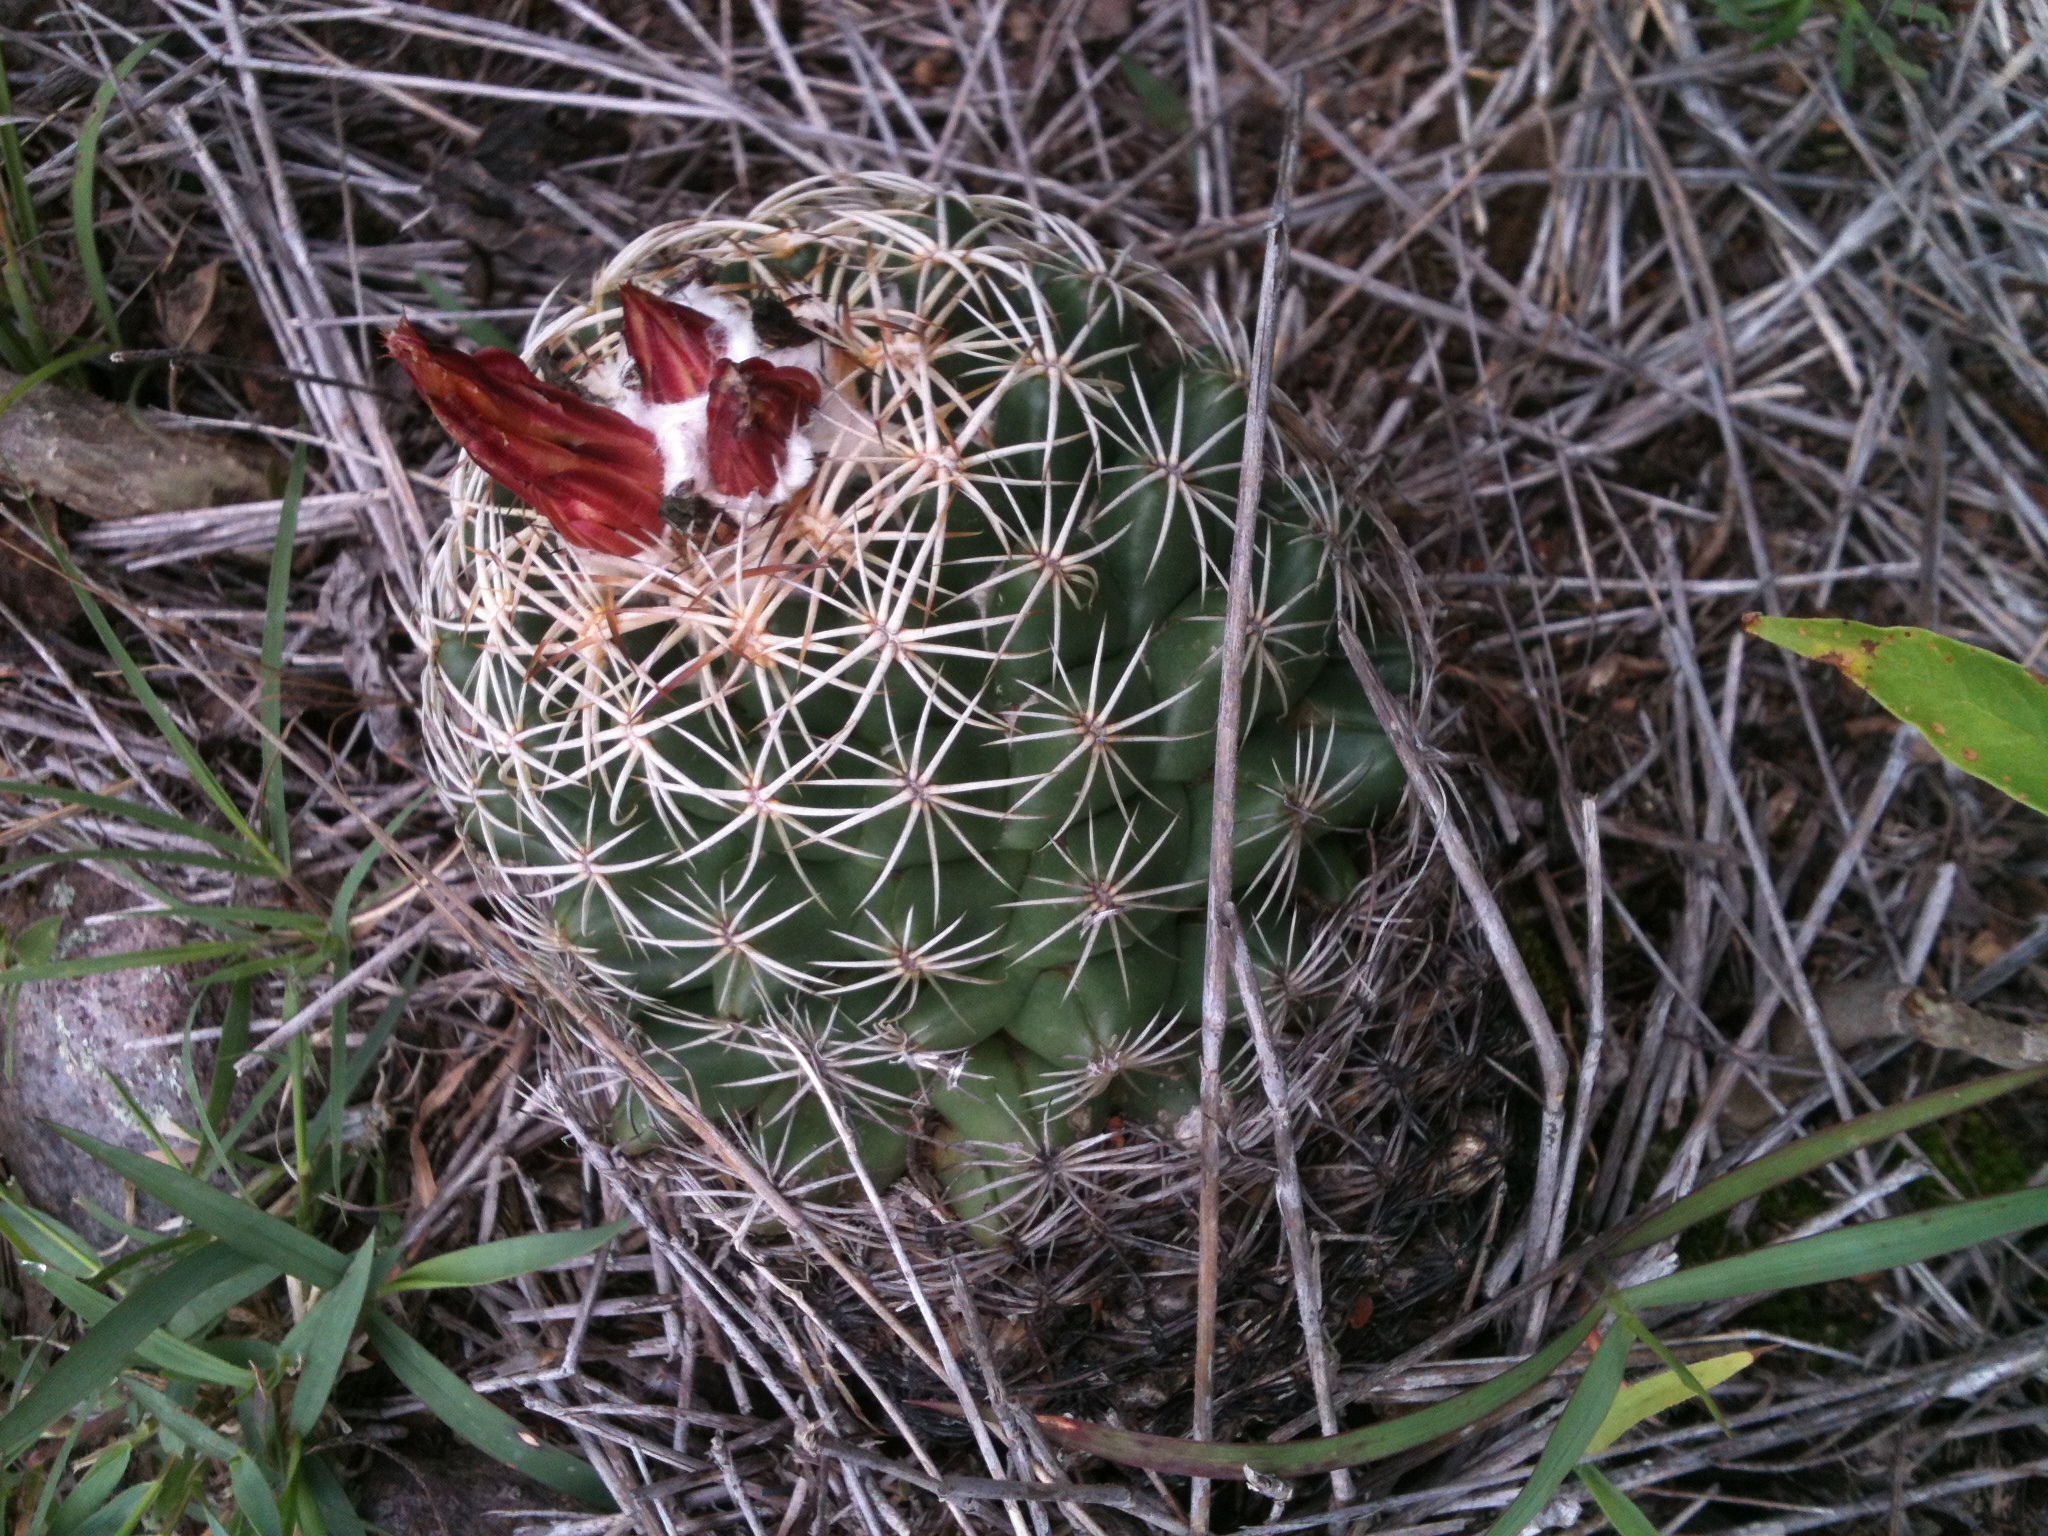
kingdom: Plantae
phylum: Tracheophyta
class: Magnoliopsida
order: Caryophyllales
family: Cactaceae
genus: Coryphantha
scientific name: Coryphantha retusa
